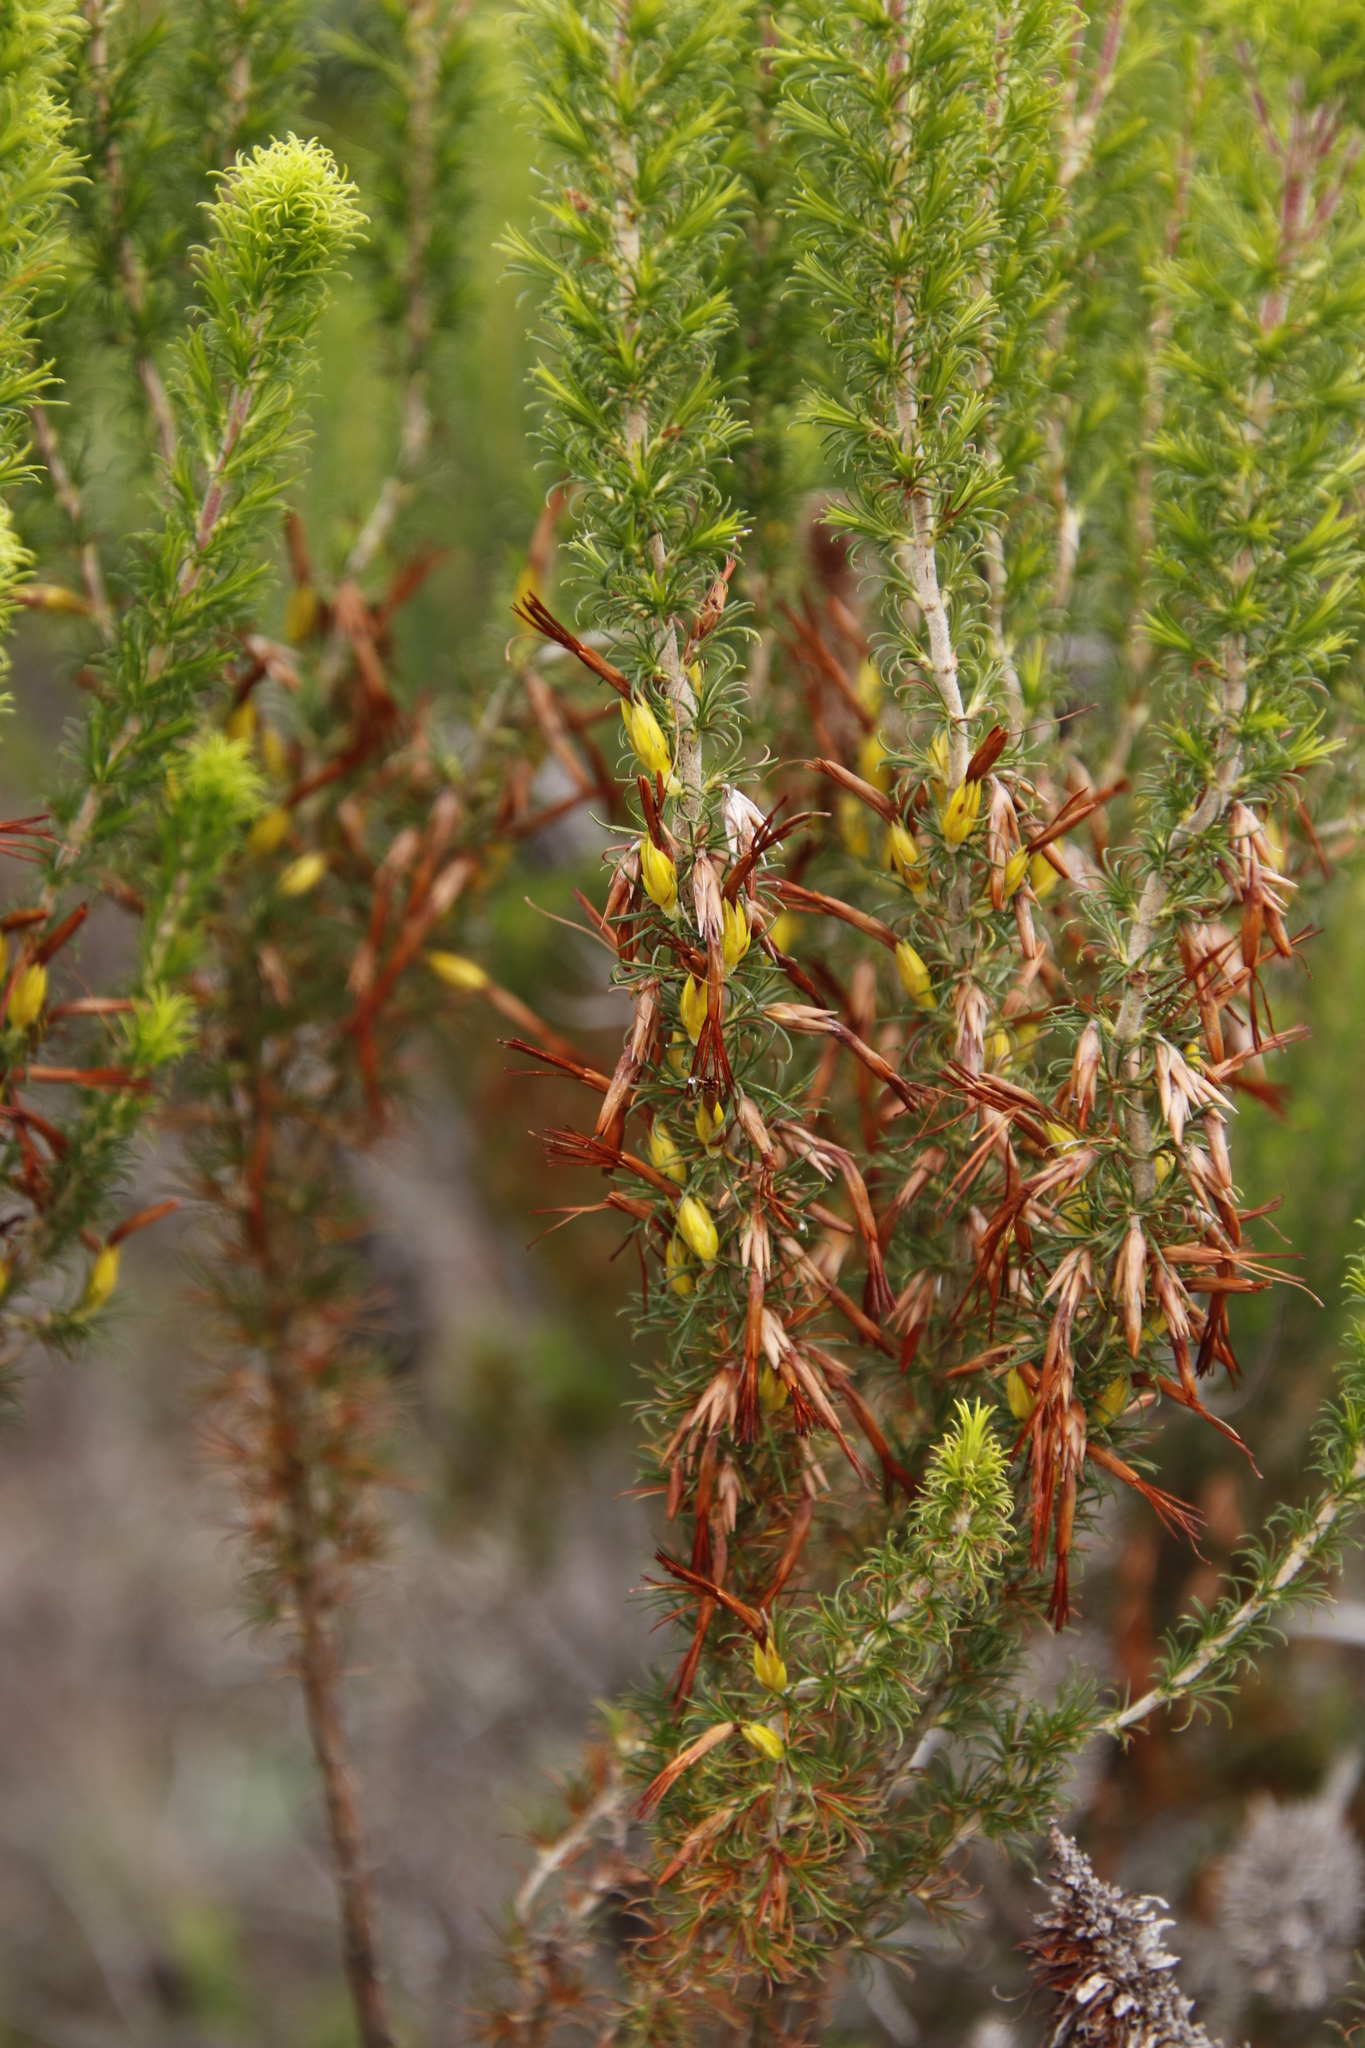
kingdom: Plantae
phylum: Tracheophyta
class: Magnoliopsida
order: Ericales
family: Ericaceae
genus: Erica
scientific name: Erica coccinea
